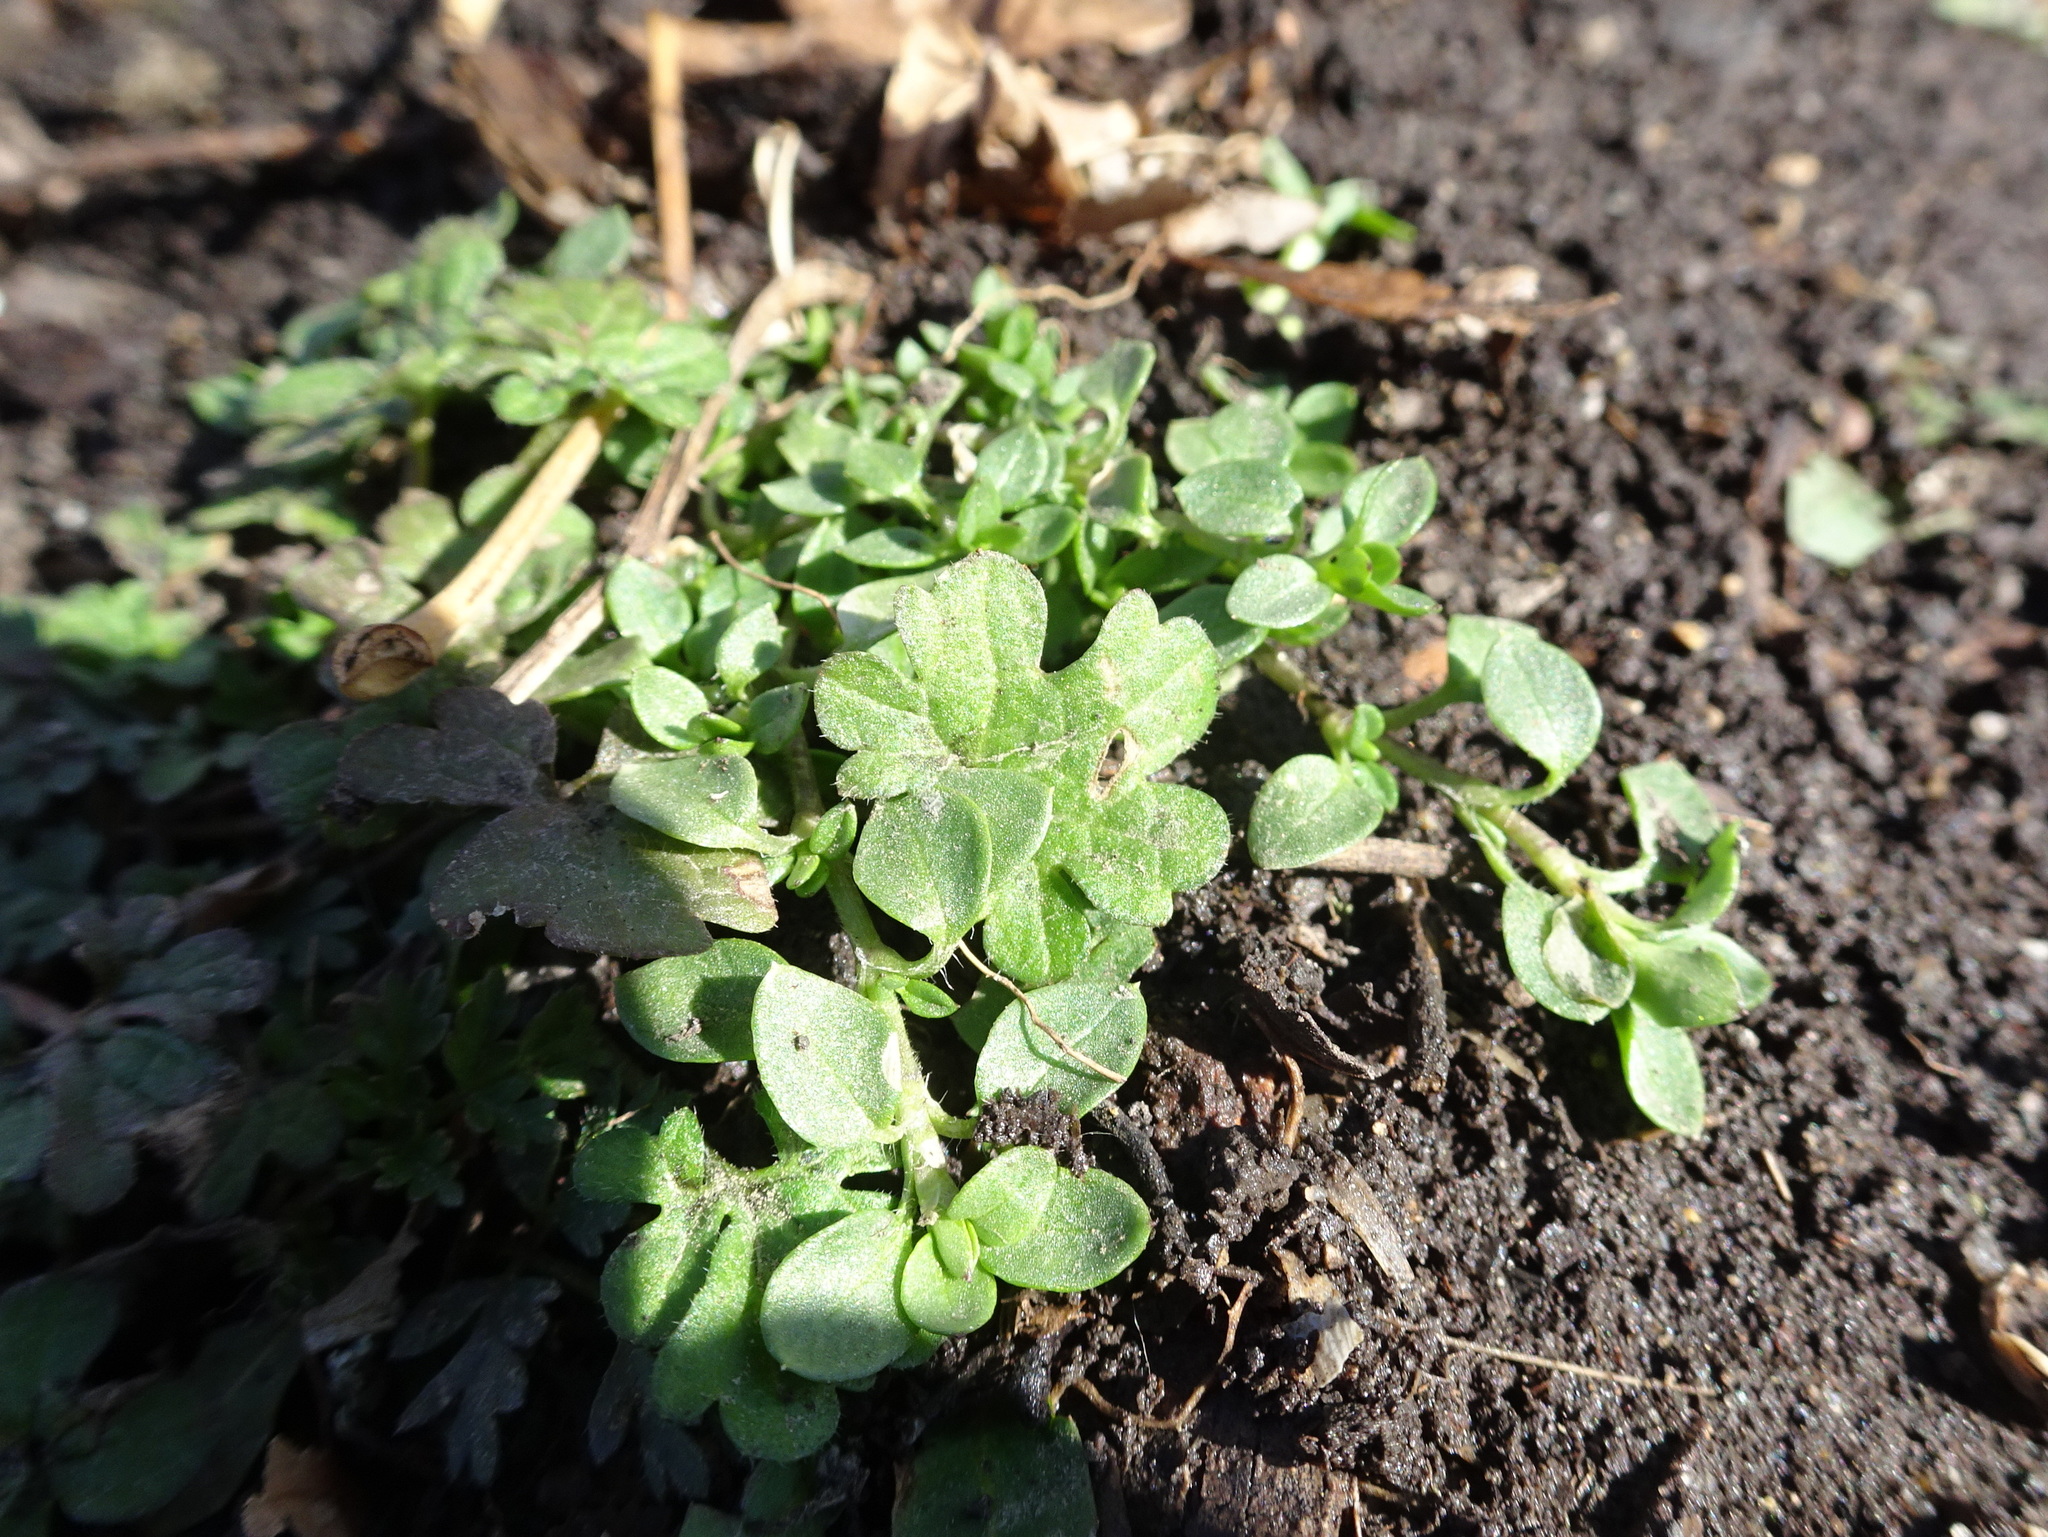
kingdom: Plantae
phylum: Tracheophyta
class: Magnoliopsida
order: Caryophyllales
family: Caryophyllaceae
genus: Stellaria
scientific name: Stellaria media
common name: Common chickweed
